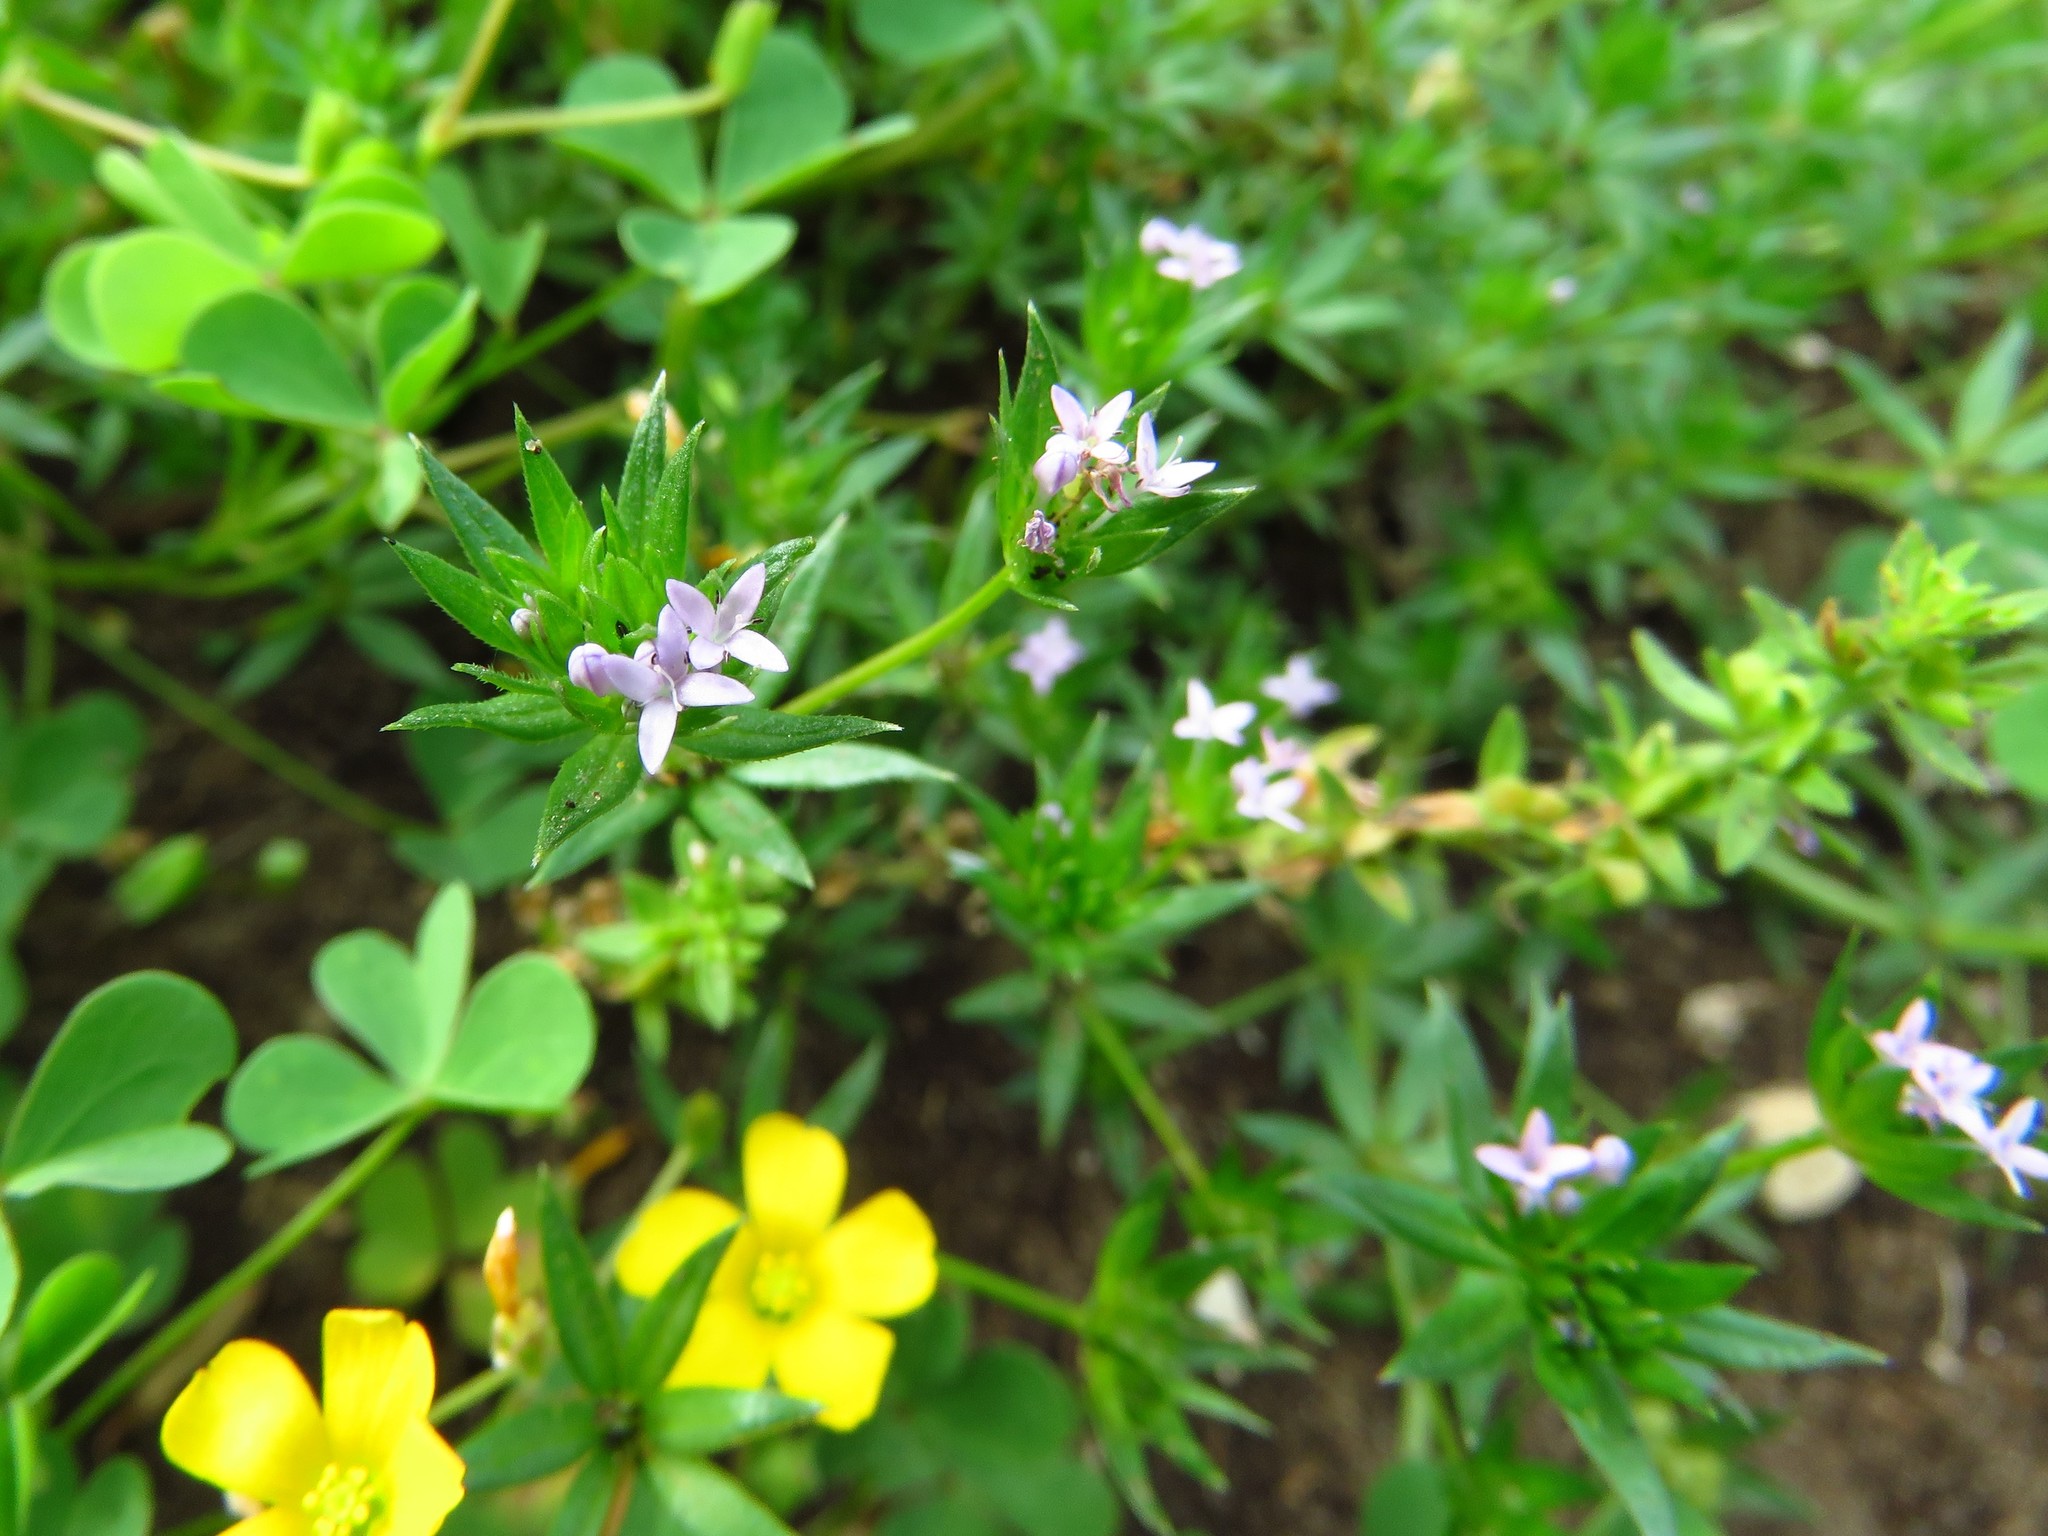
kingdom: Plantae
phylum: Tracheophyta
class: Magnoliopsida
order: Gentianales
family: Rubiaceae
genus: Sherardia
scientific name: Sherardia arvensis
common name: Field madder
